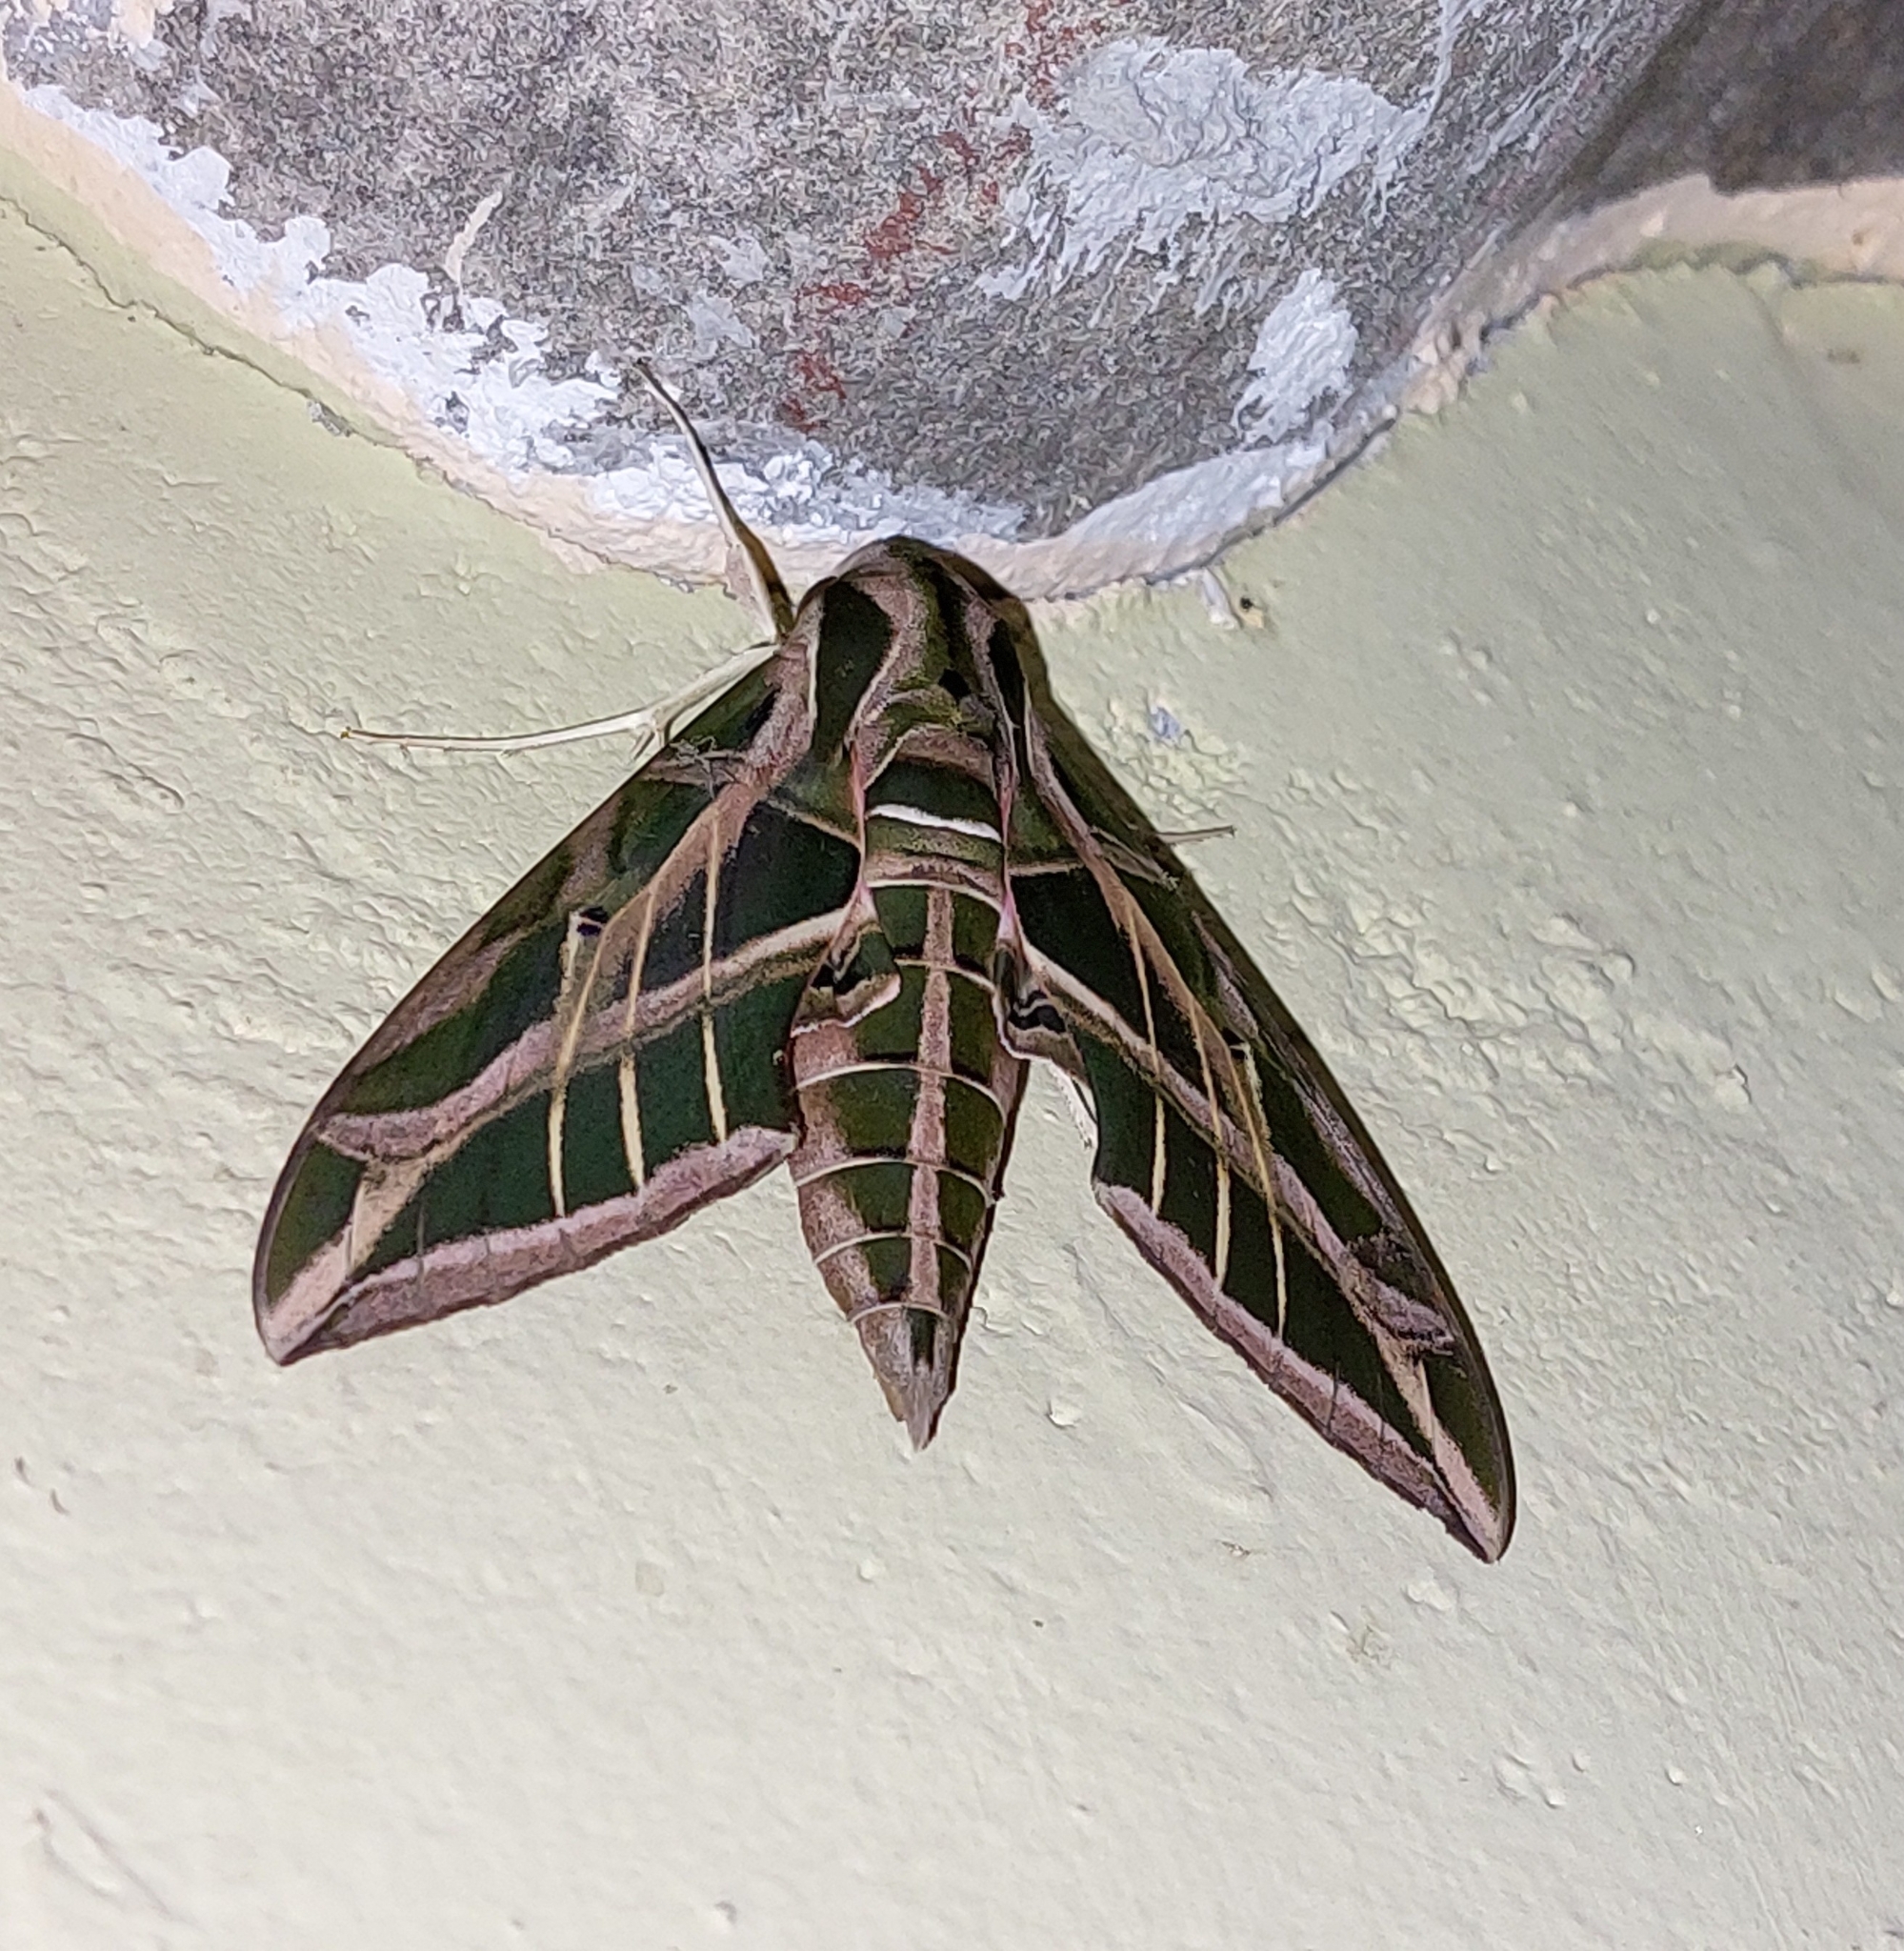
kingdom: Animalia
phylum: Arthropoda
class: Insecta
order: Lepidoptera
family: Sphingidae
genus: Eumorpha
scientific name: Eumorpha vitis
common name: Vine sphinx
